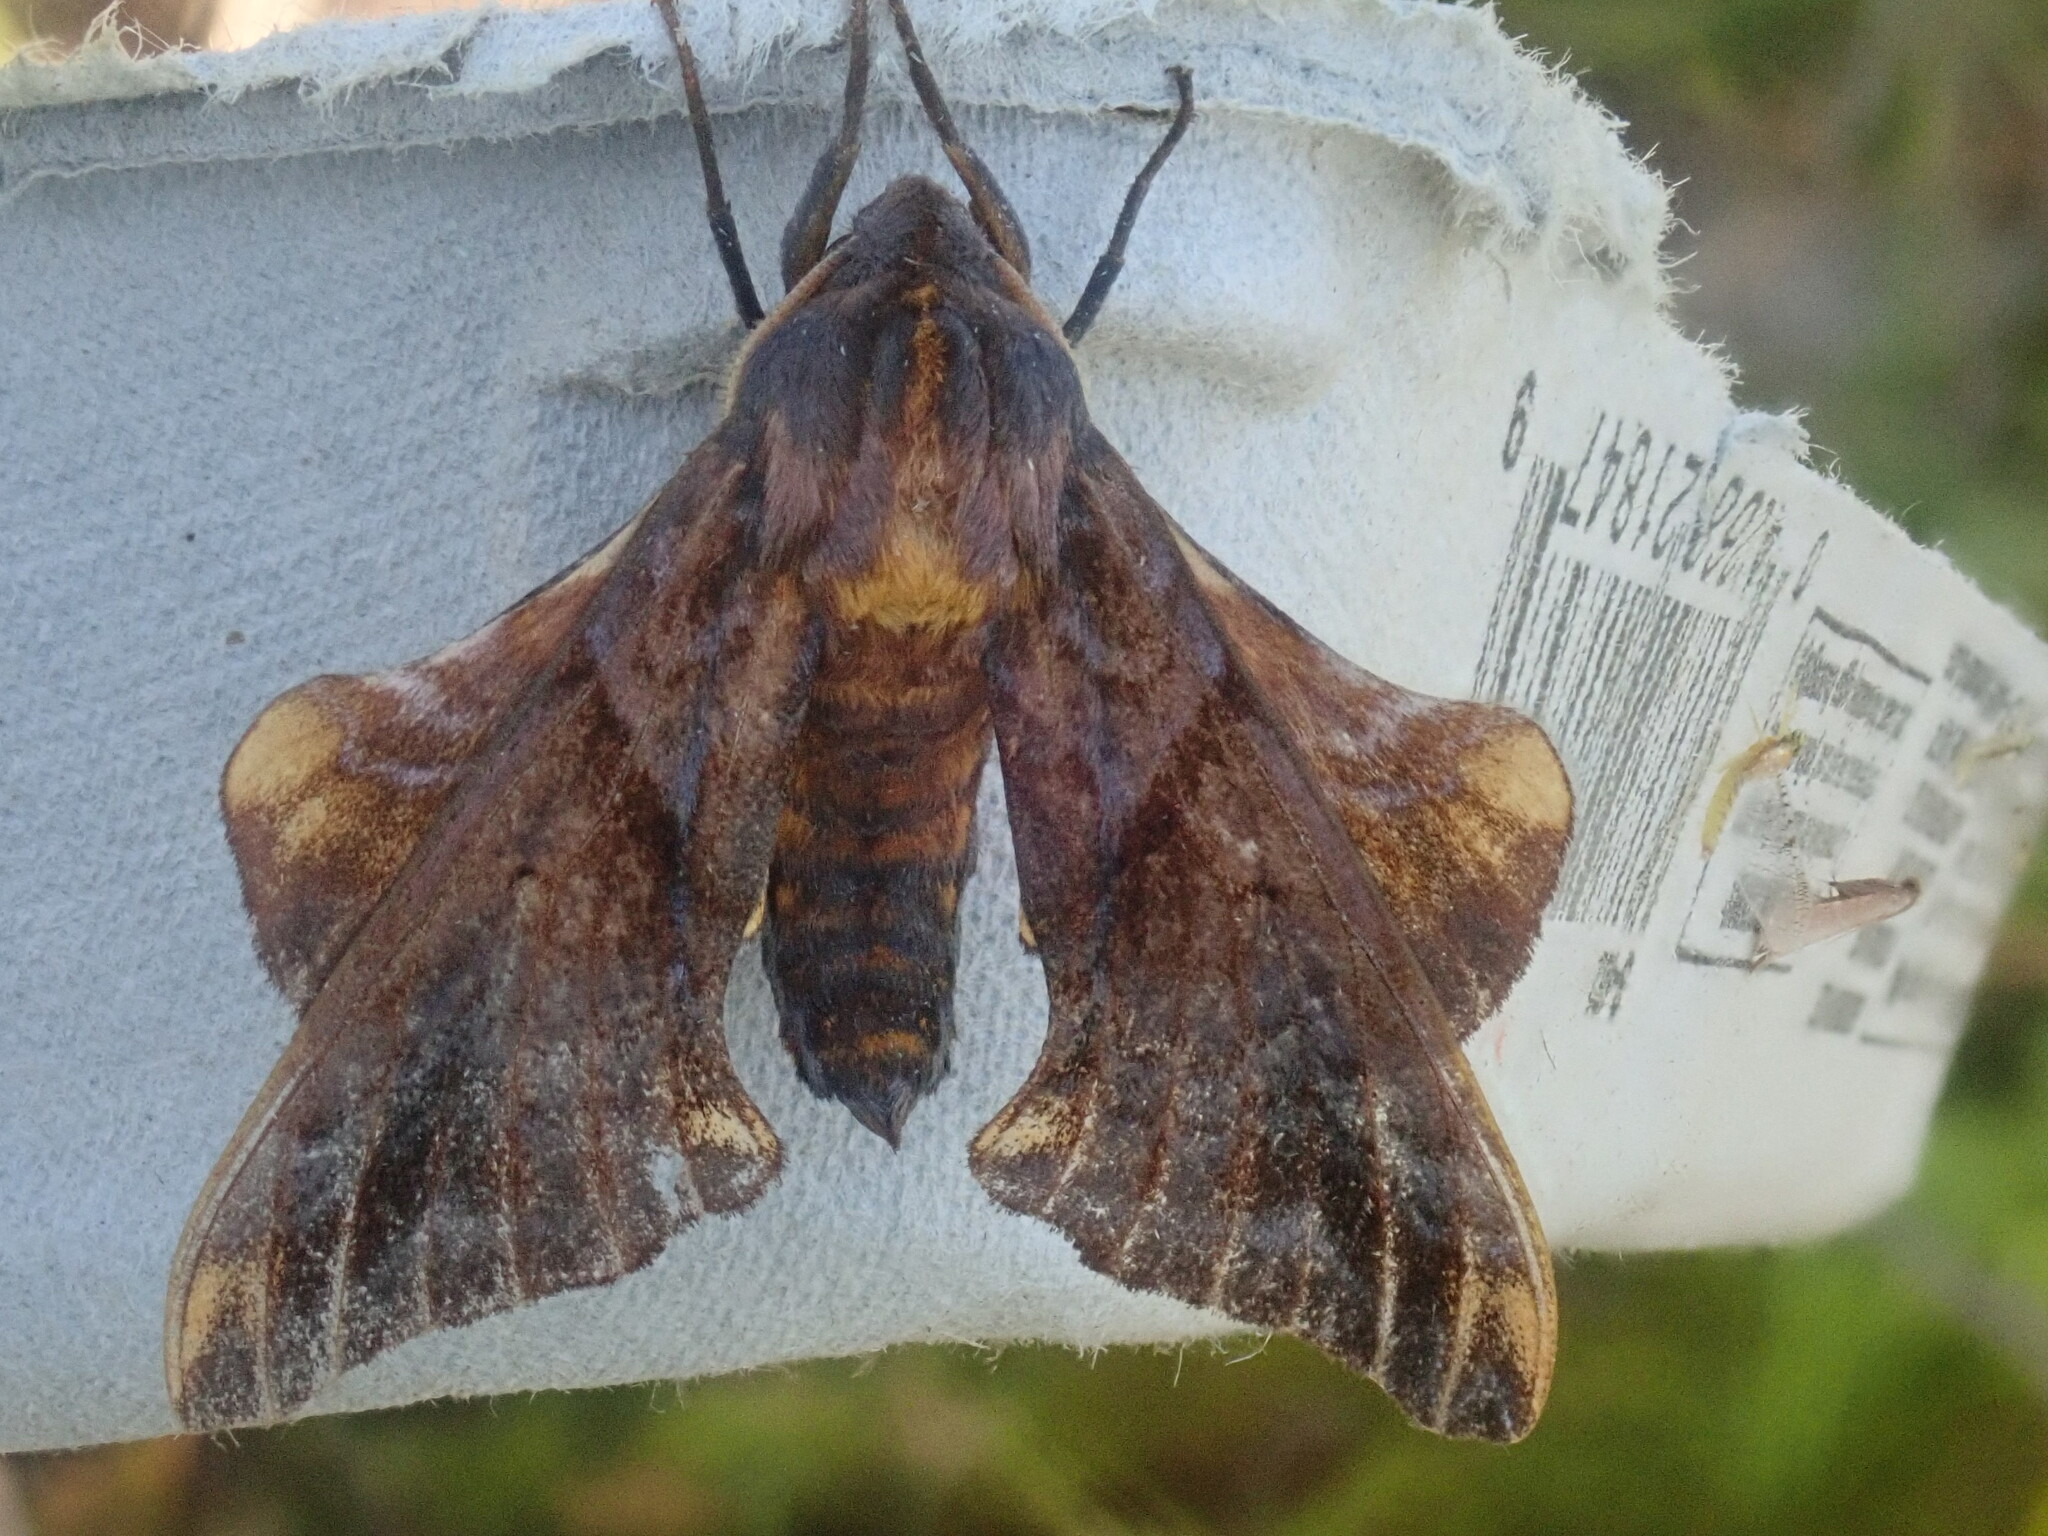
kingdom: Animalia
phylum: Arthropoda
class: Insecta
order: Lepidoptera
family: Sphingidae
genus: Paonias
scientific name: Paonias myops
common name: Small-eyed sphinx
